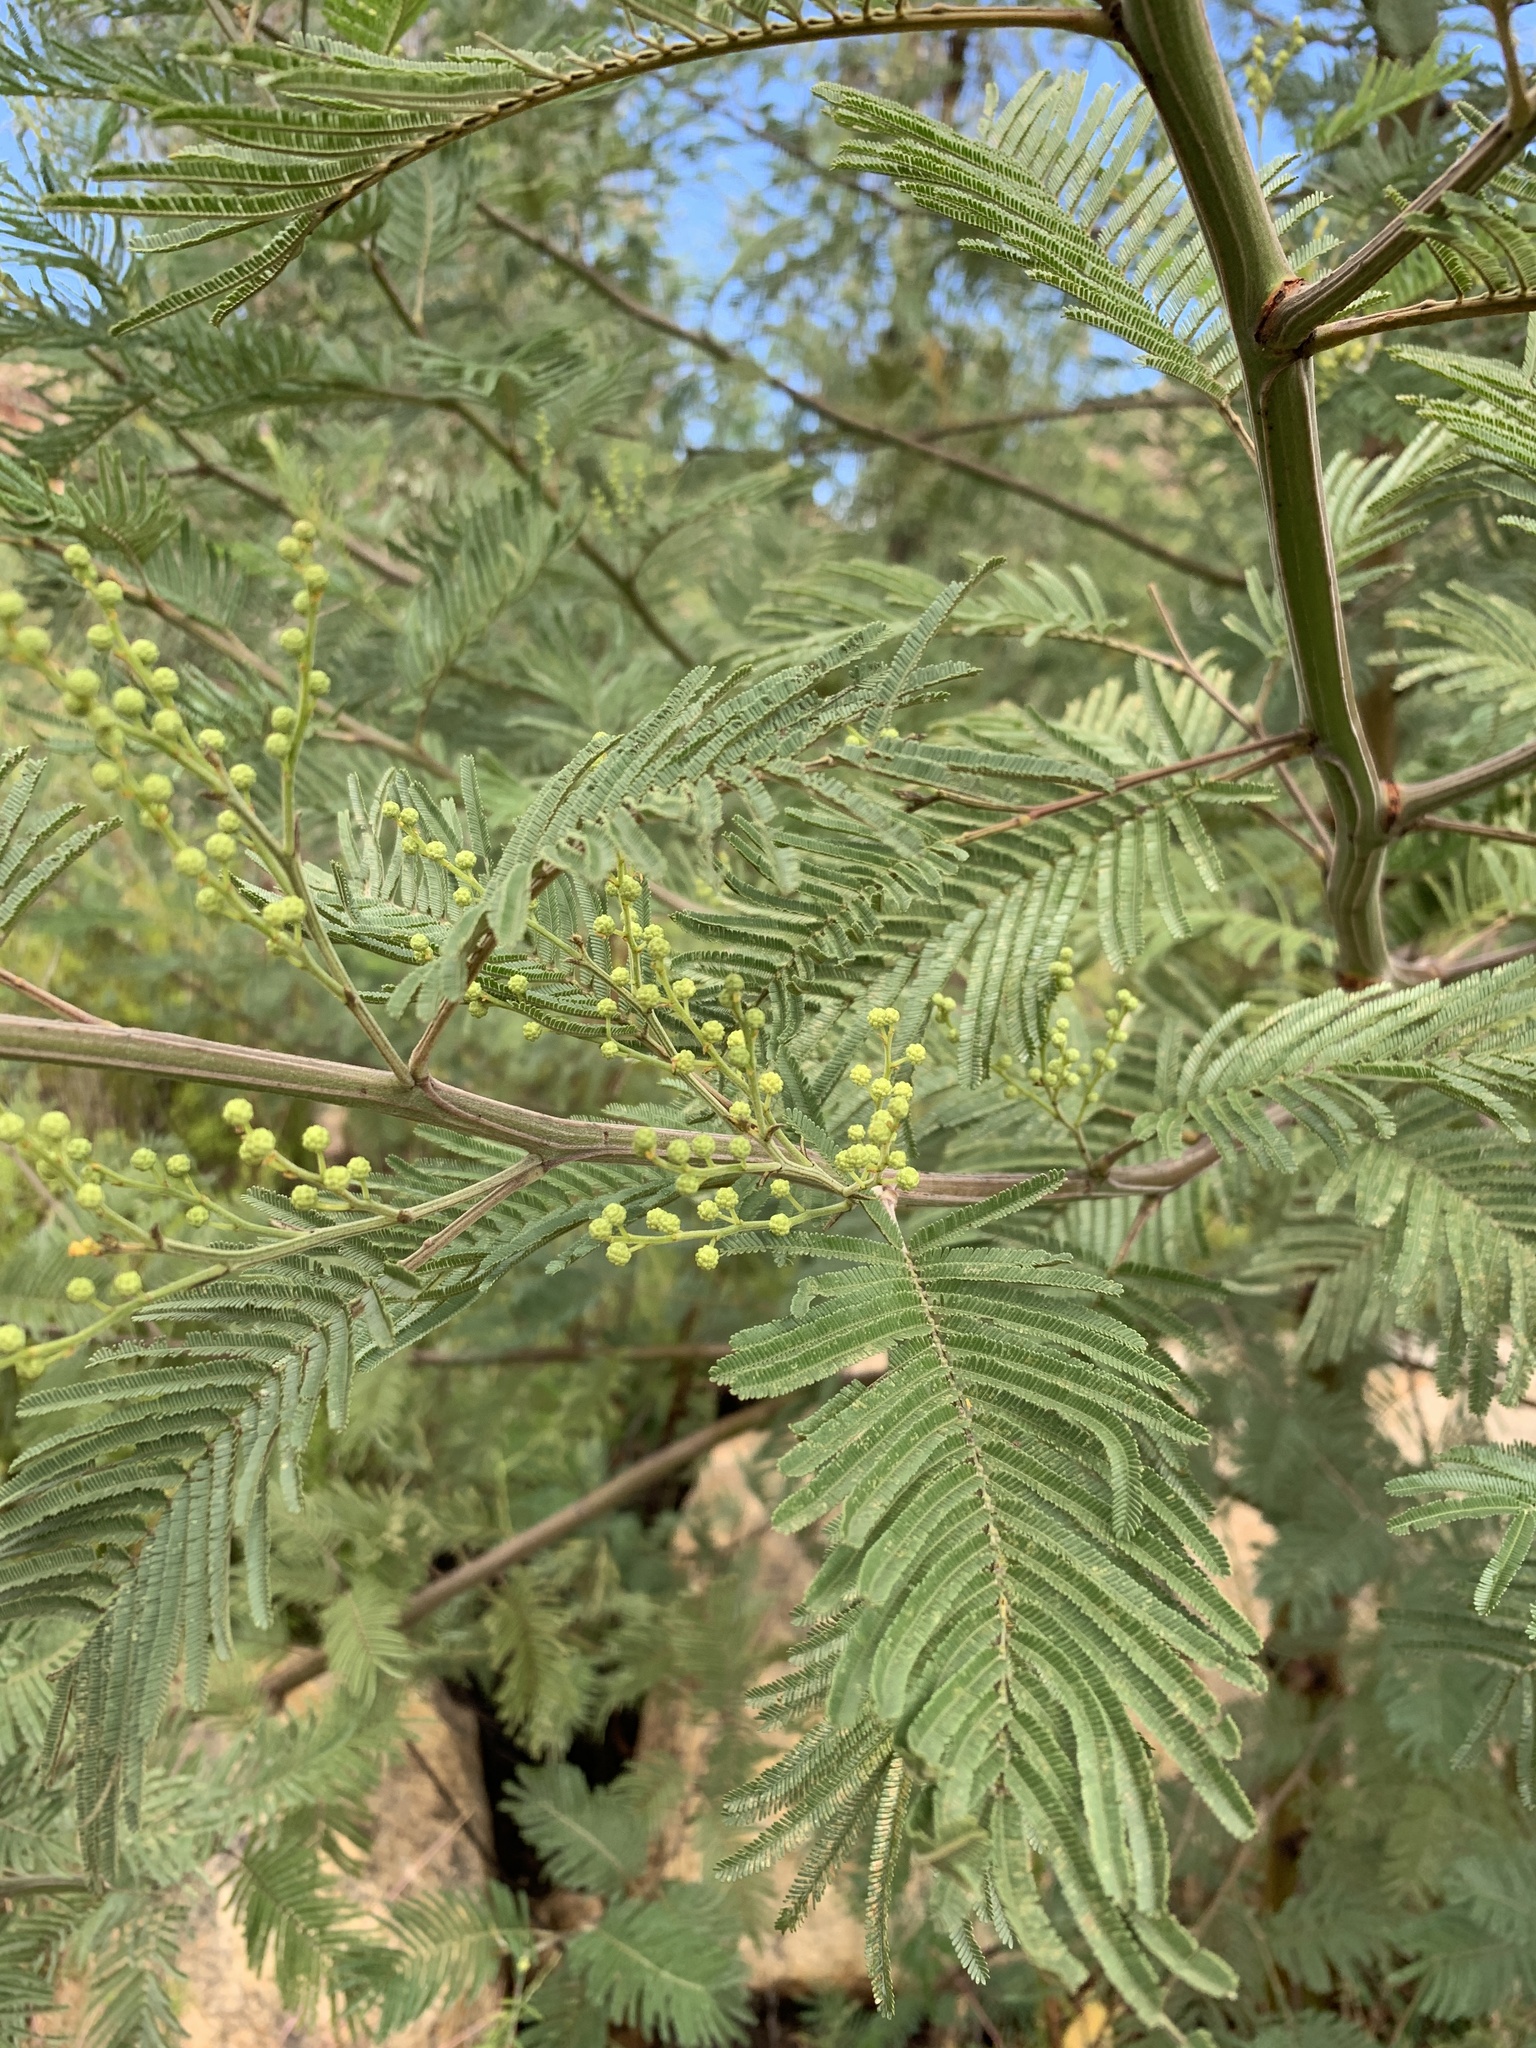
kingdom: Plantae
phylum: Tracheophyta
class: Magnoliopsida
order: Fabales
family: Fabaceae
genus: Acacia
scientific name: Acacia mearnsii
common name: Black wattle
